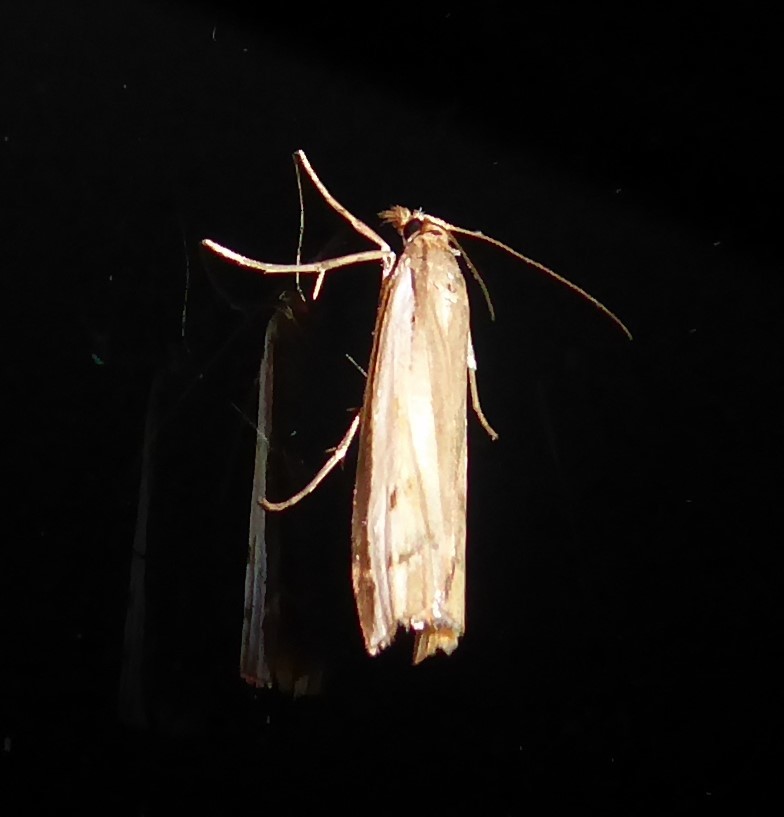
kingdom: Animalia
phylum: Arthropoda
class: Insecta
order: Lepidoptera
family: Crambidae
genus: Orocrambus
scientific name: Orocrambus flexuosellus
